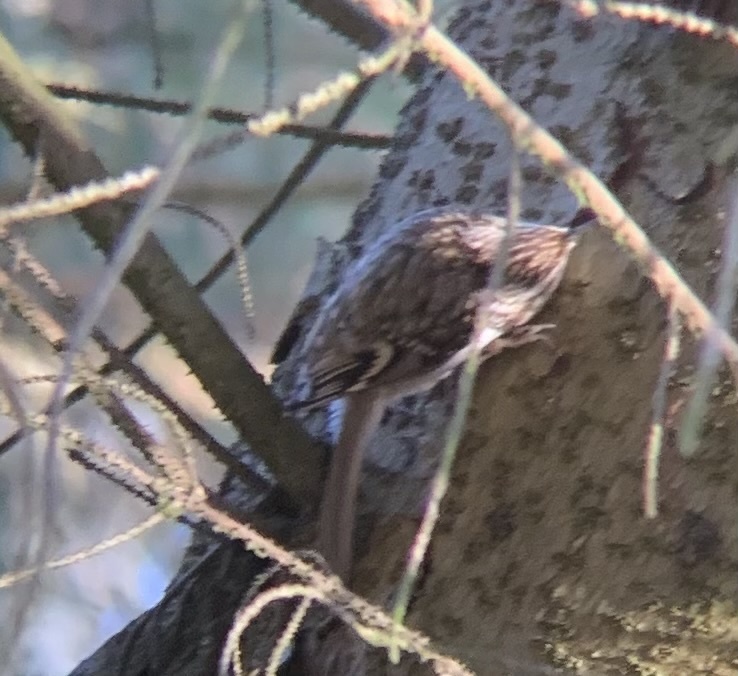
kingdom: Animalia
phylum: Chordata
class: Aves
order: Passeriformes
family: Certhiidae
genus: Certhia
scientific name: Certhia familiaris
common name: Eurasian treecreeper
